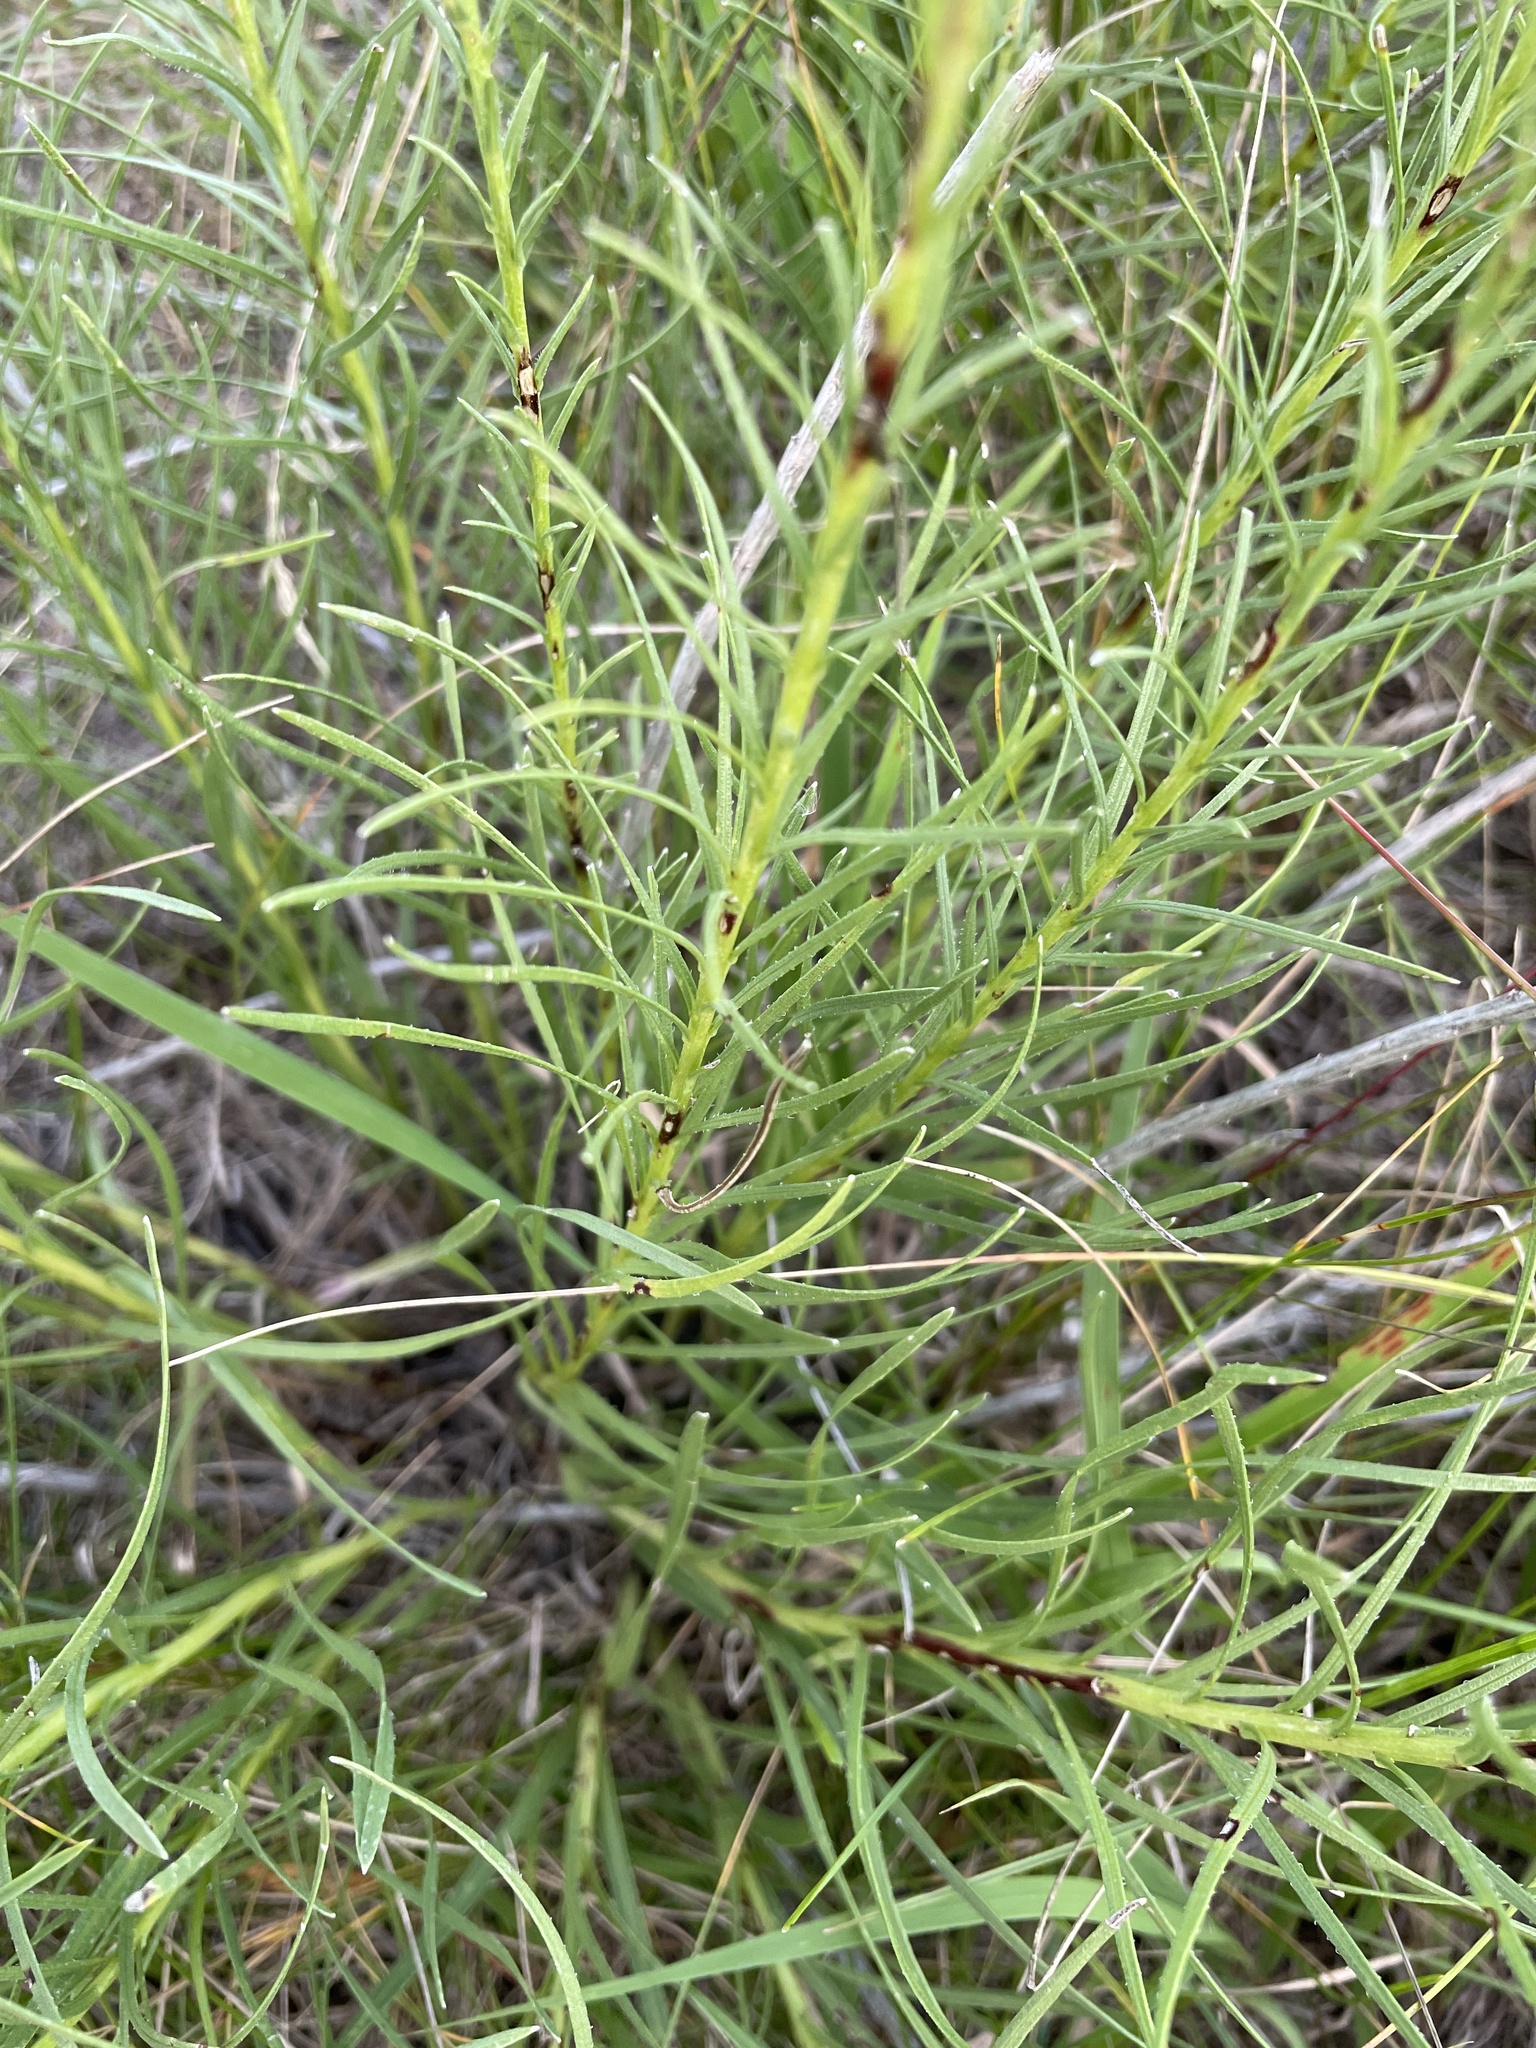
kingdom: Plantae
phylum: Tracheophyta
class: Magnoliopsida
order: Asterales
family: Asteraceae
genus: Liatris
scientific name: Liatris punctata
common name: Dotted gayfeather
